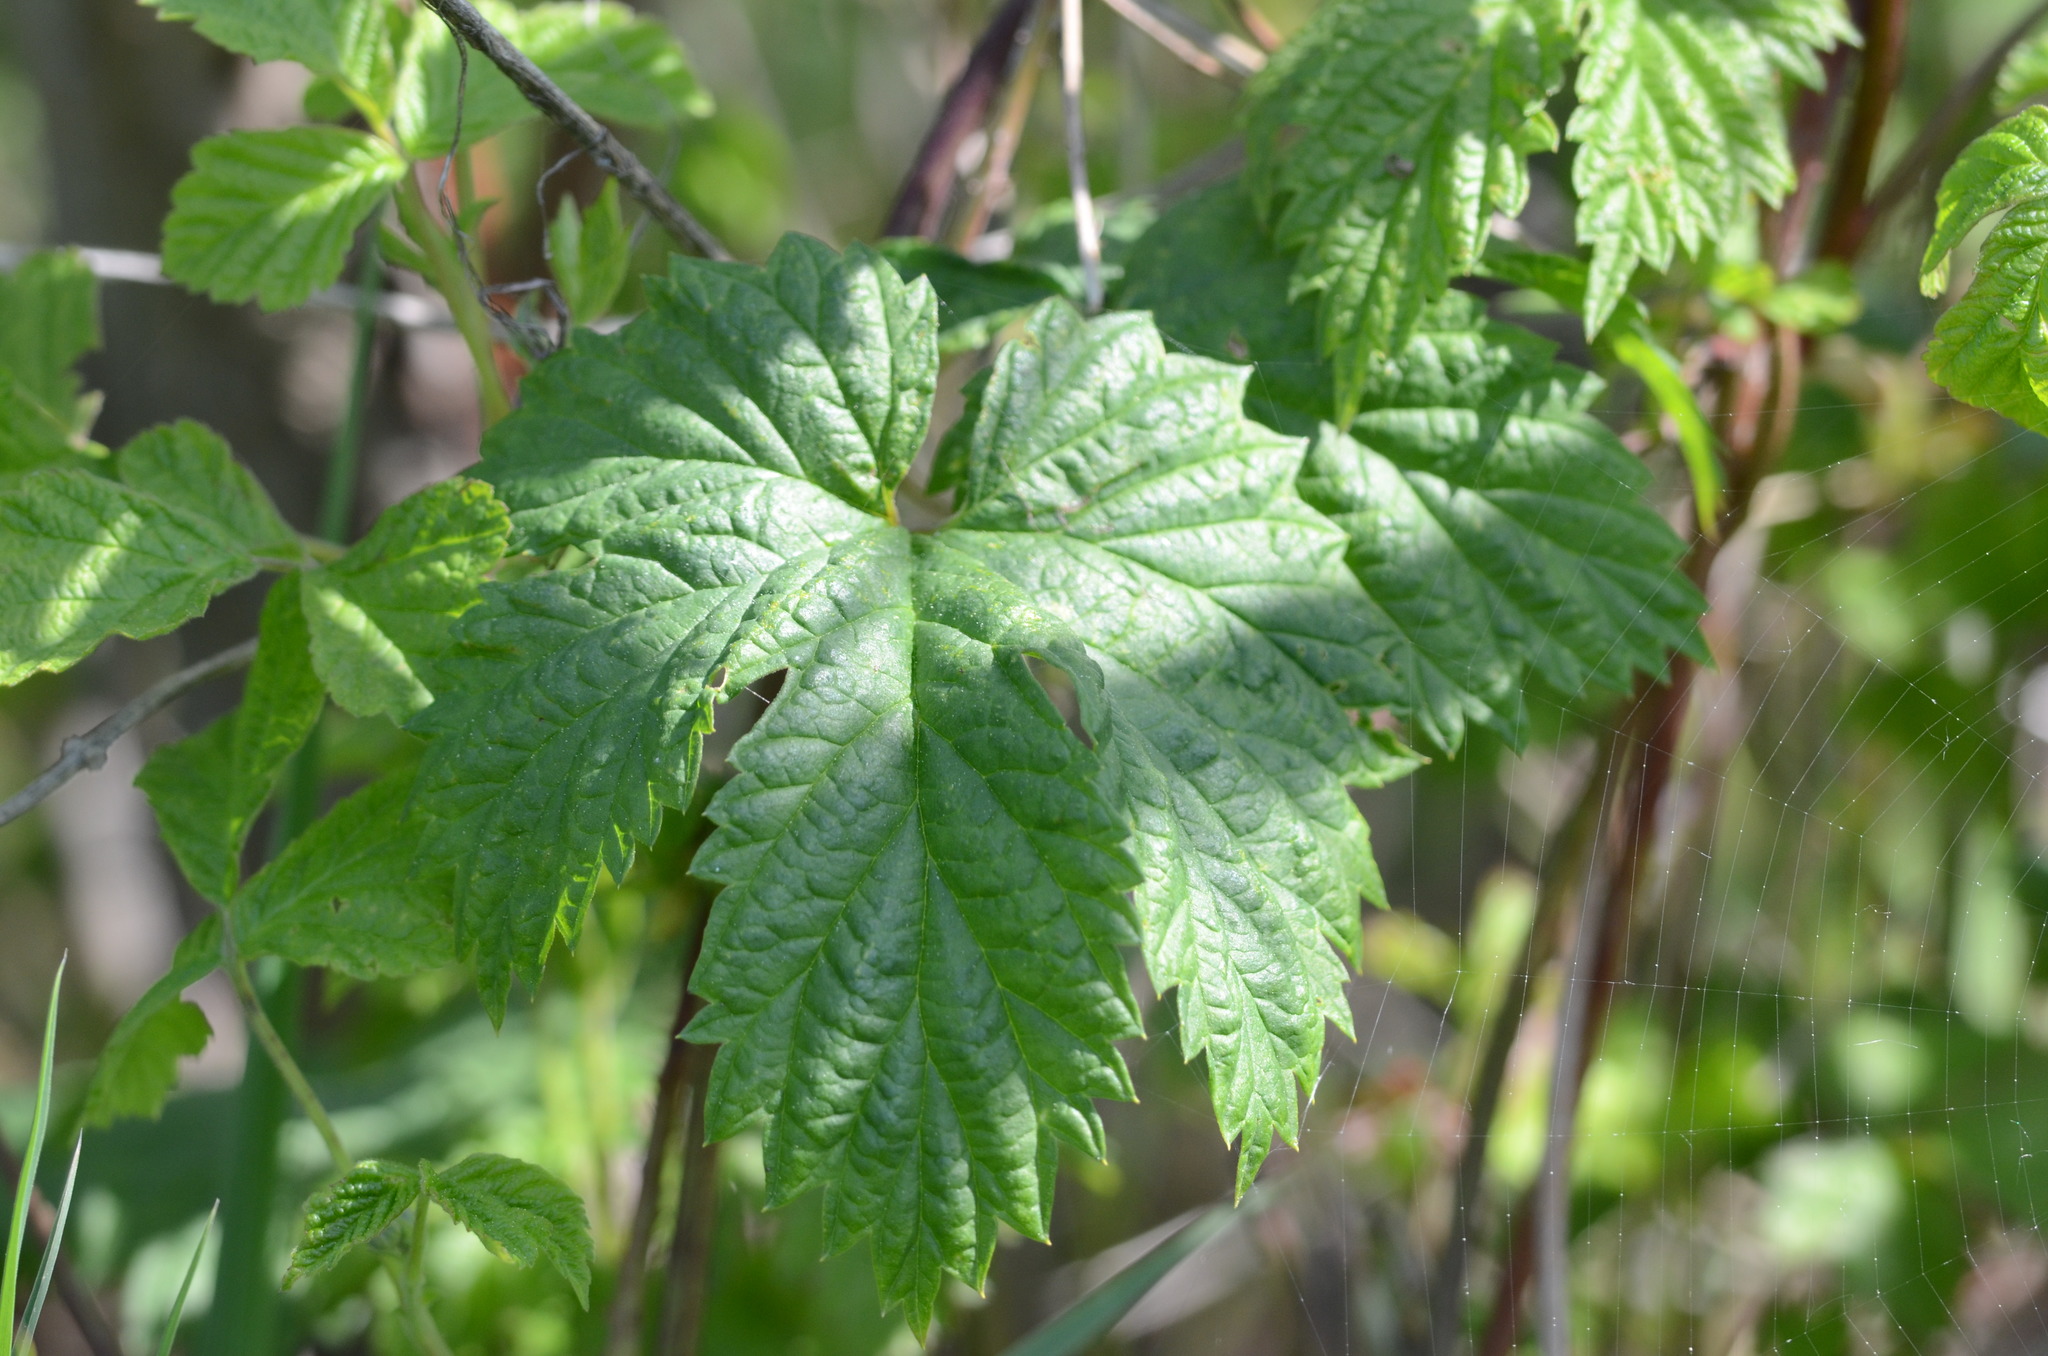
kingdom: Plantae
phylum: Tracheophyta
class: Magnoliopsida
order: Rosales
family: Cannabaceae
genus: Humulus
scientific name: Humulus lupulus
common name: Hop
